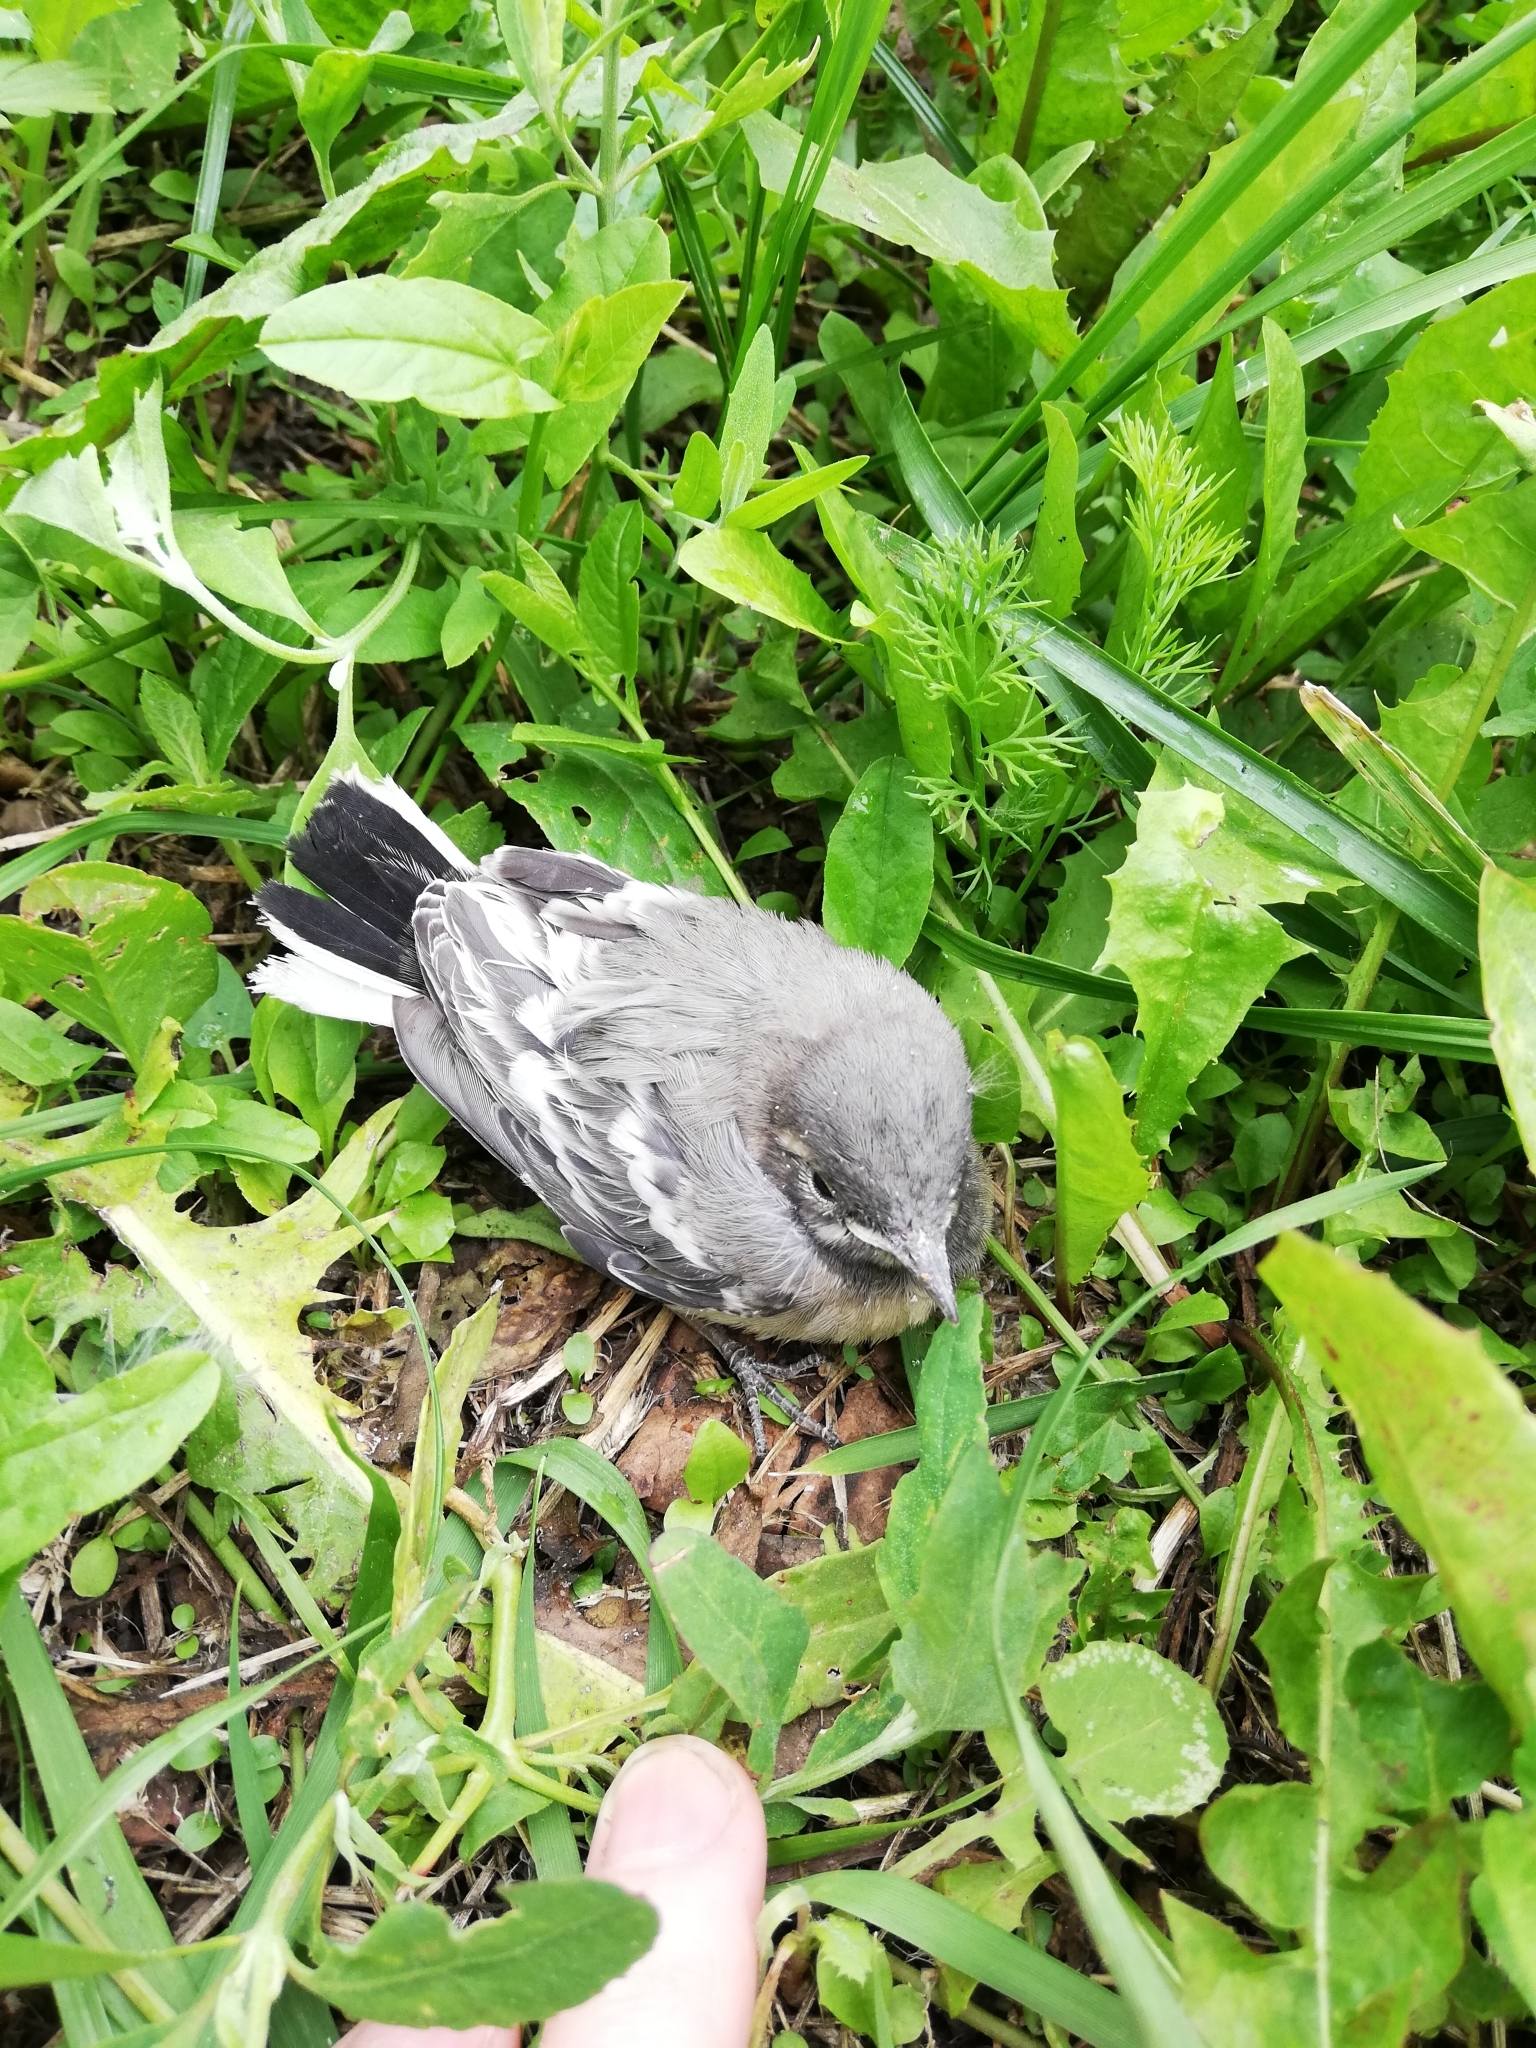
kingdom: Animalia
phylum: Chordata
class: Aves
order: Passeriformes
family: Motacillidae
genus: Motacilla
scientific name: Motacilla alba
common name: White wagtail
